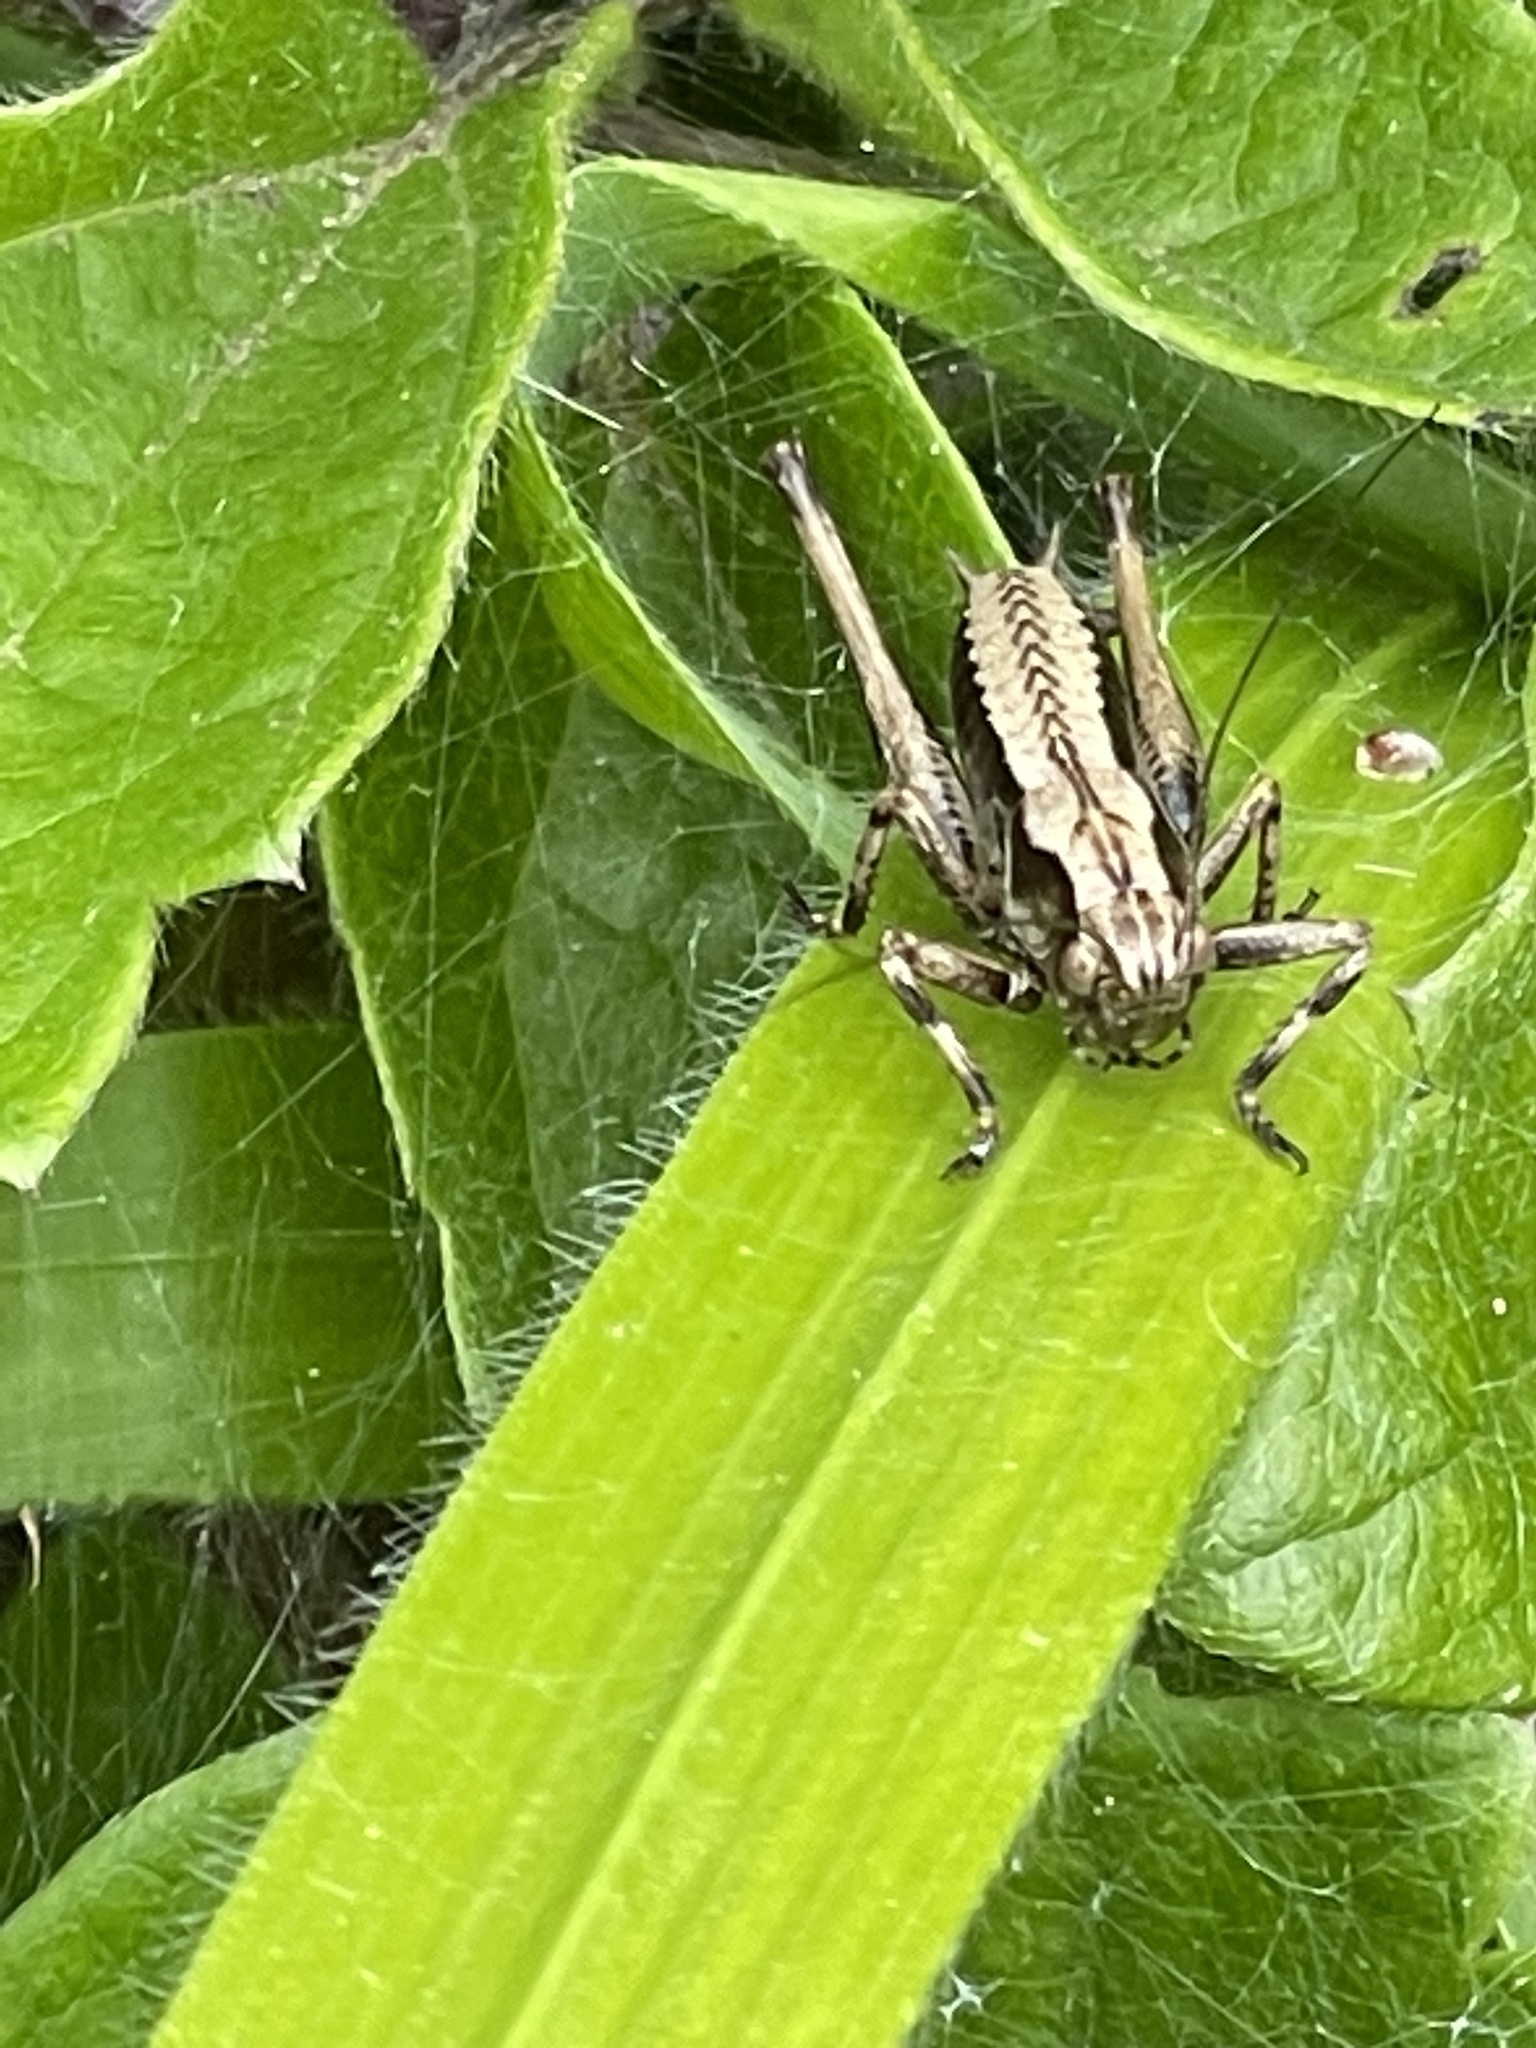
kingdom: Animalia
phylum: Arthropoda
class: Insecta
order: Orthoptera
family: Tettigoniidae
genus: Pholidoptera
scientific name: Pholidoptera griseoaptera
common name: Dark bush-cricket
